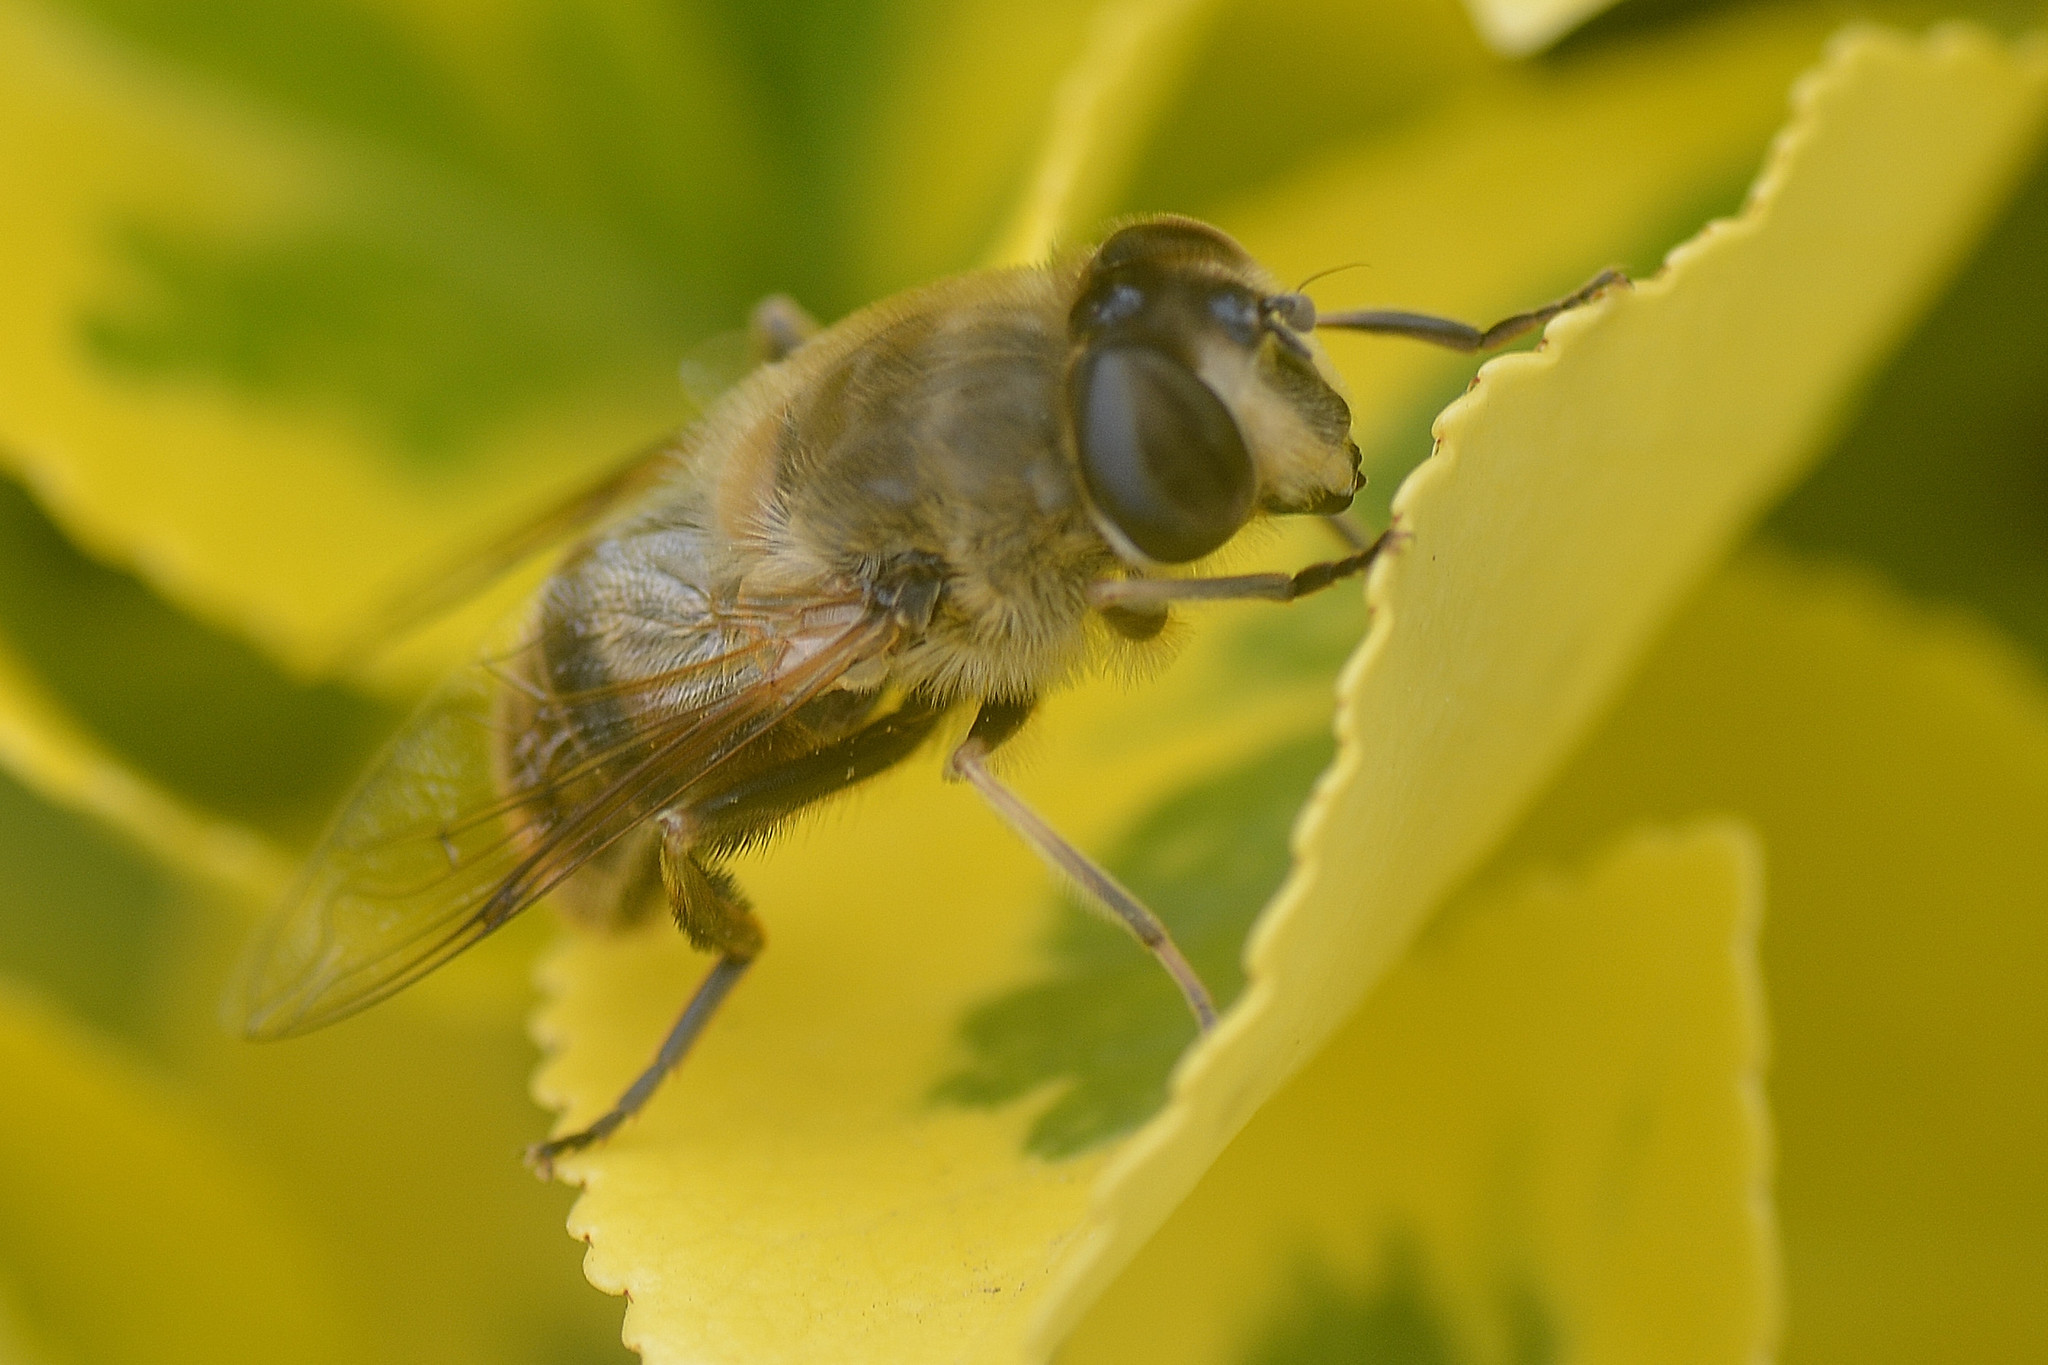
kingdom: Animalia
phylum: Arthropoda
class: Insecta
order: Diptera
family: Syrphidae
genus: Eristalis
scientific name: Eristalis tenax
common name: Drone fly
